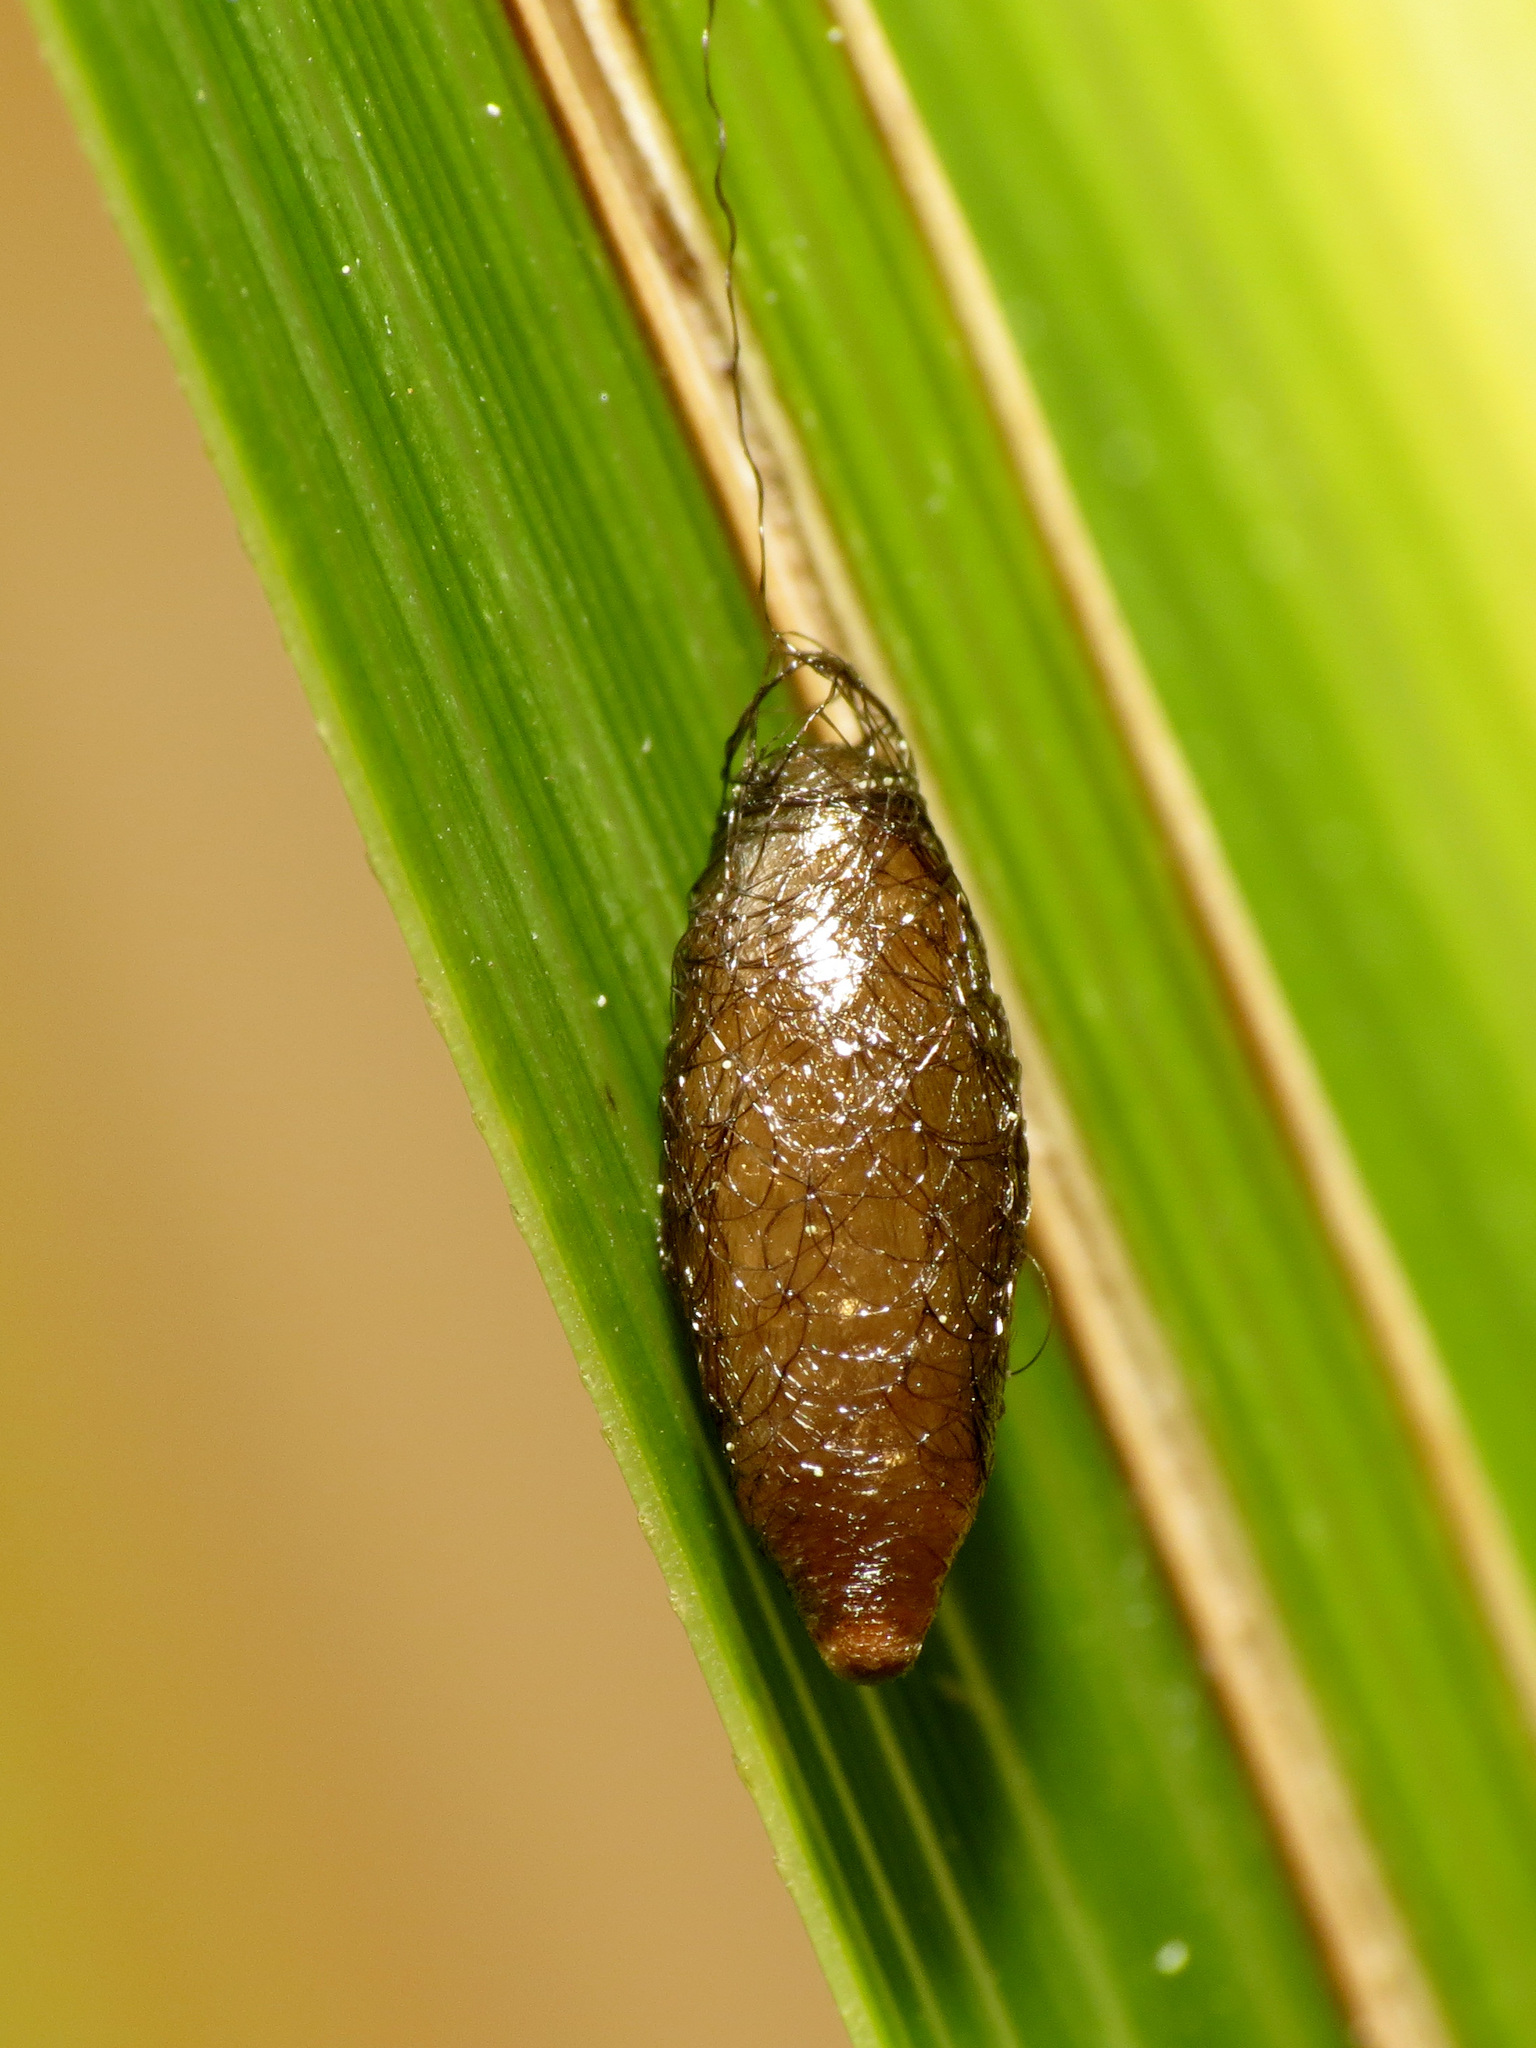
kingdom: Animalia
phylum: Arthropoda
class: Insecta
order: Hymenoptera
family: Braconidae
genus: Meteorus
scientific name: Meteorus pulchricornis
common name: Braconid wasp
